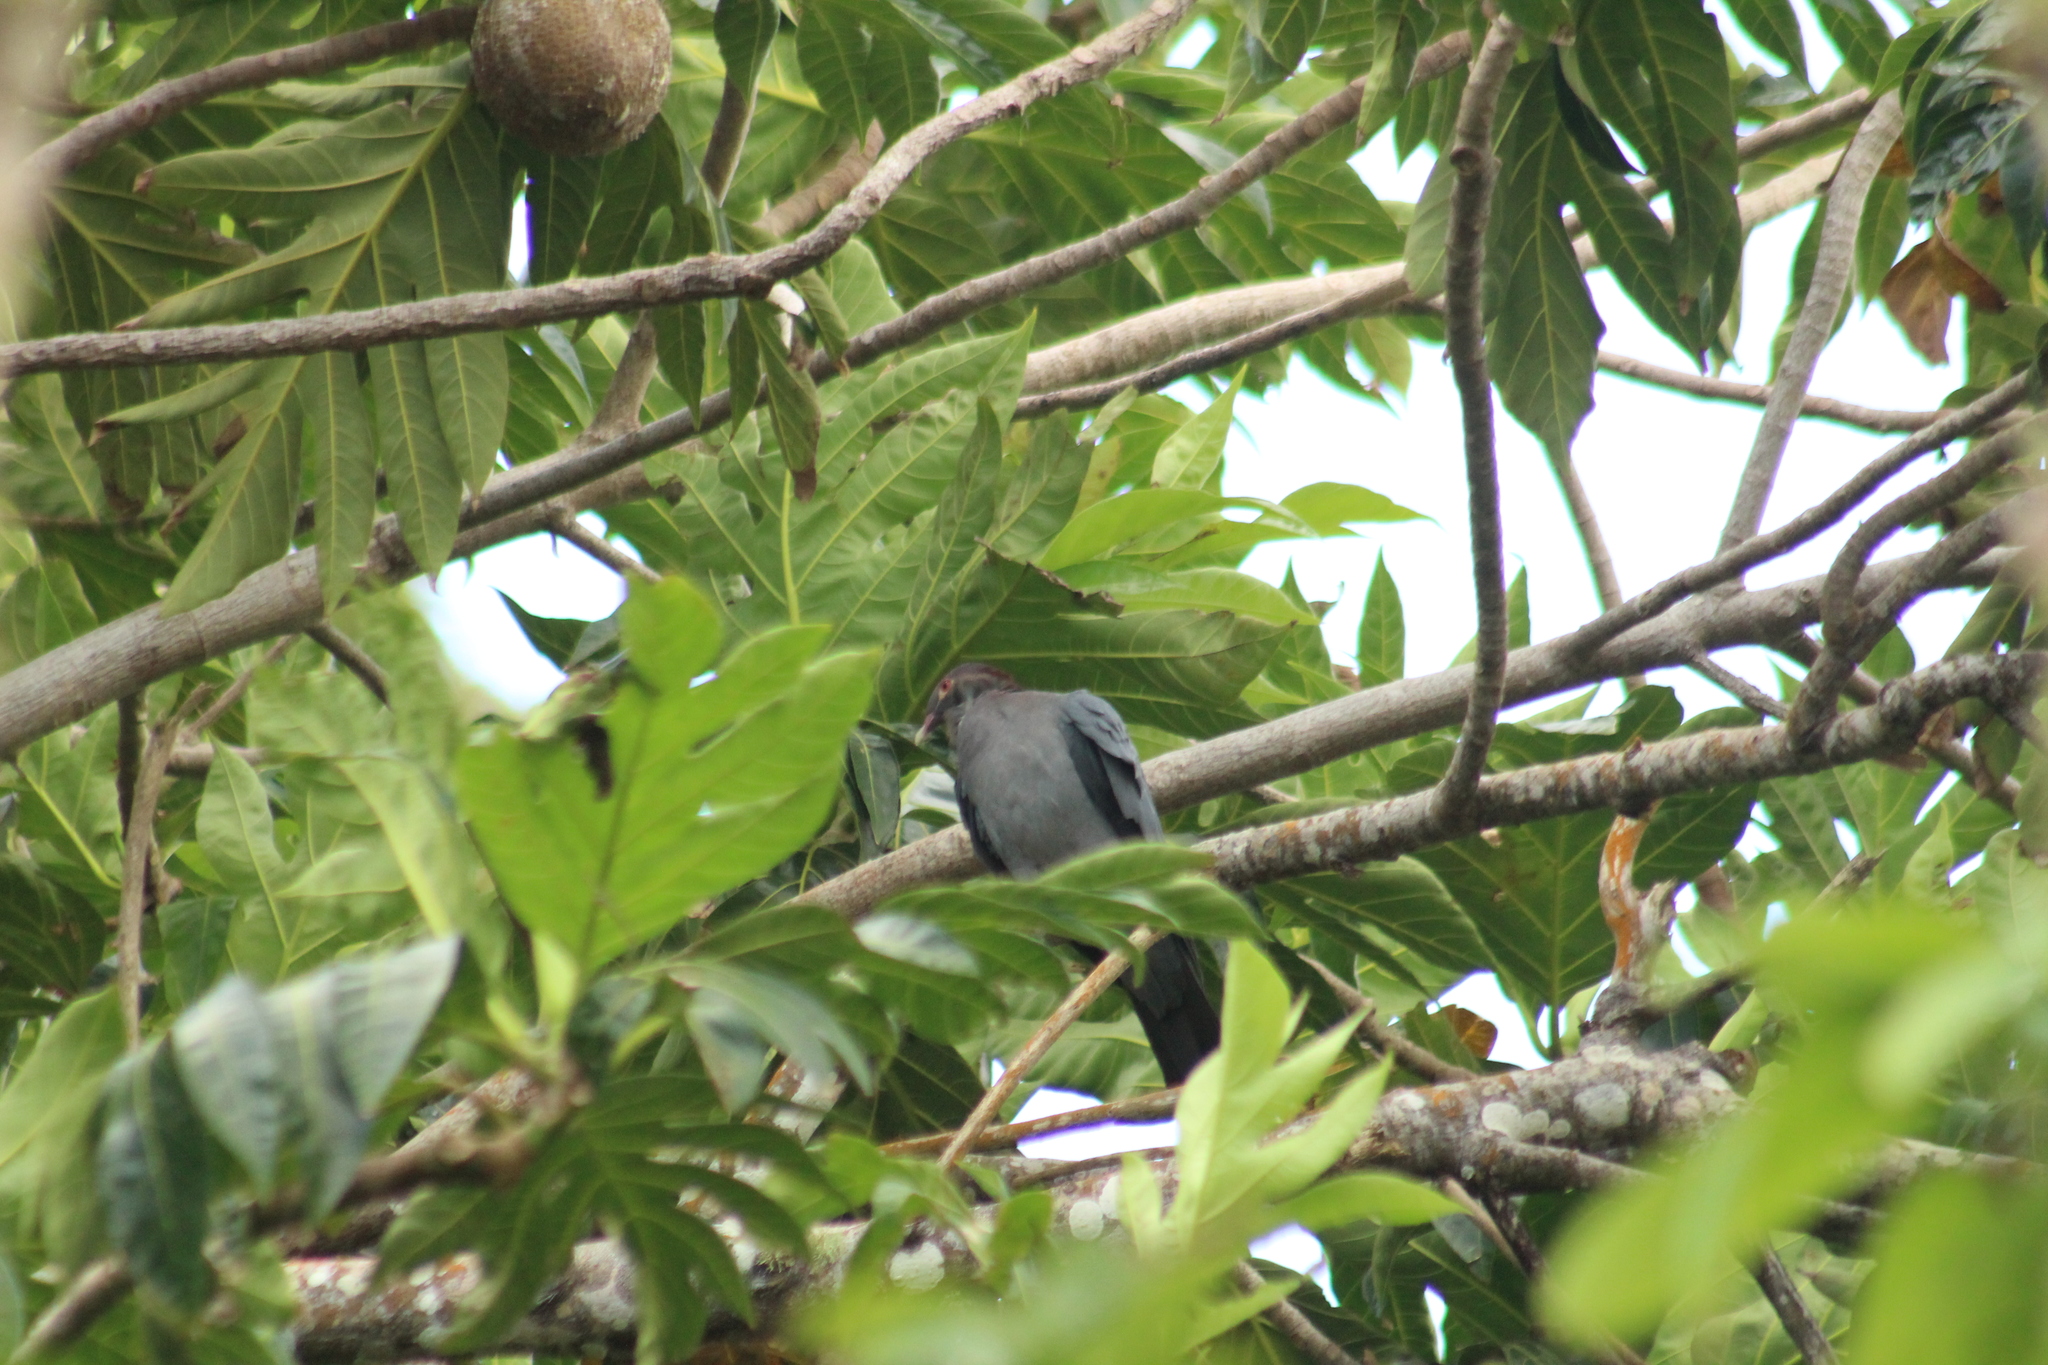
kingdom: Animalia
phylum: Chordata
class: Aves
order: Columbiformes
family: Columbidae
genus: Patagioenas
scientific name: Patagioenas squamosa
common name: Scaly-naped pigeon
